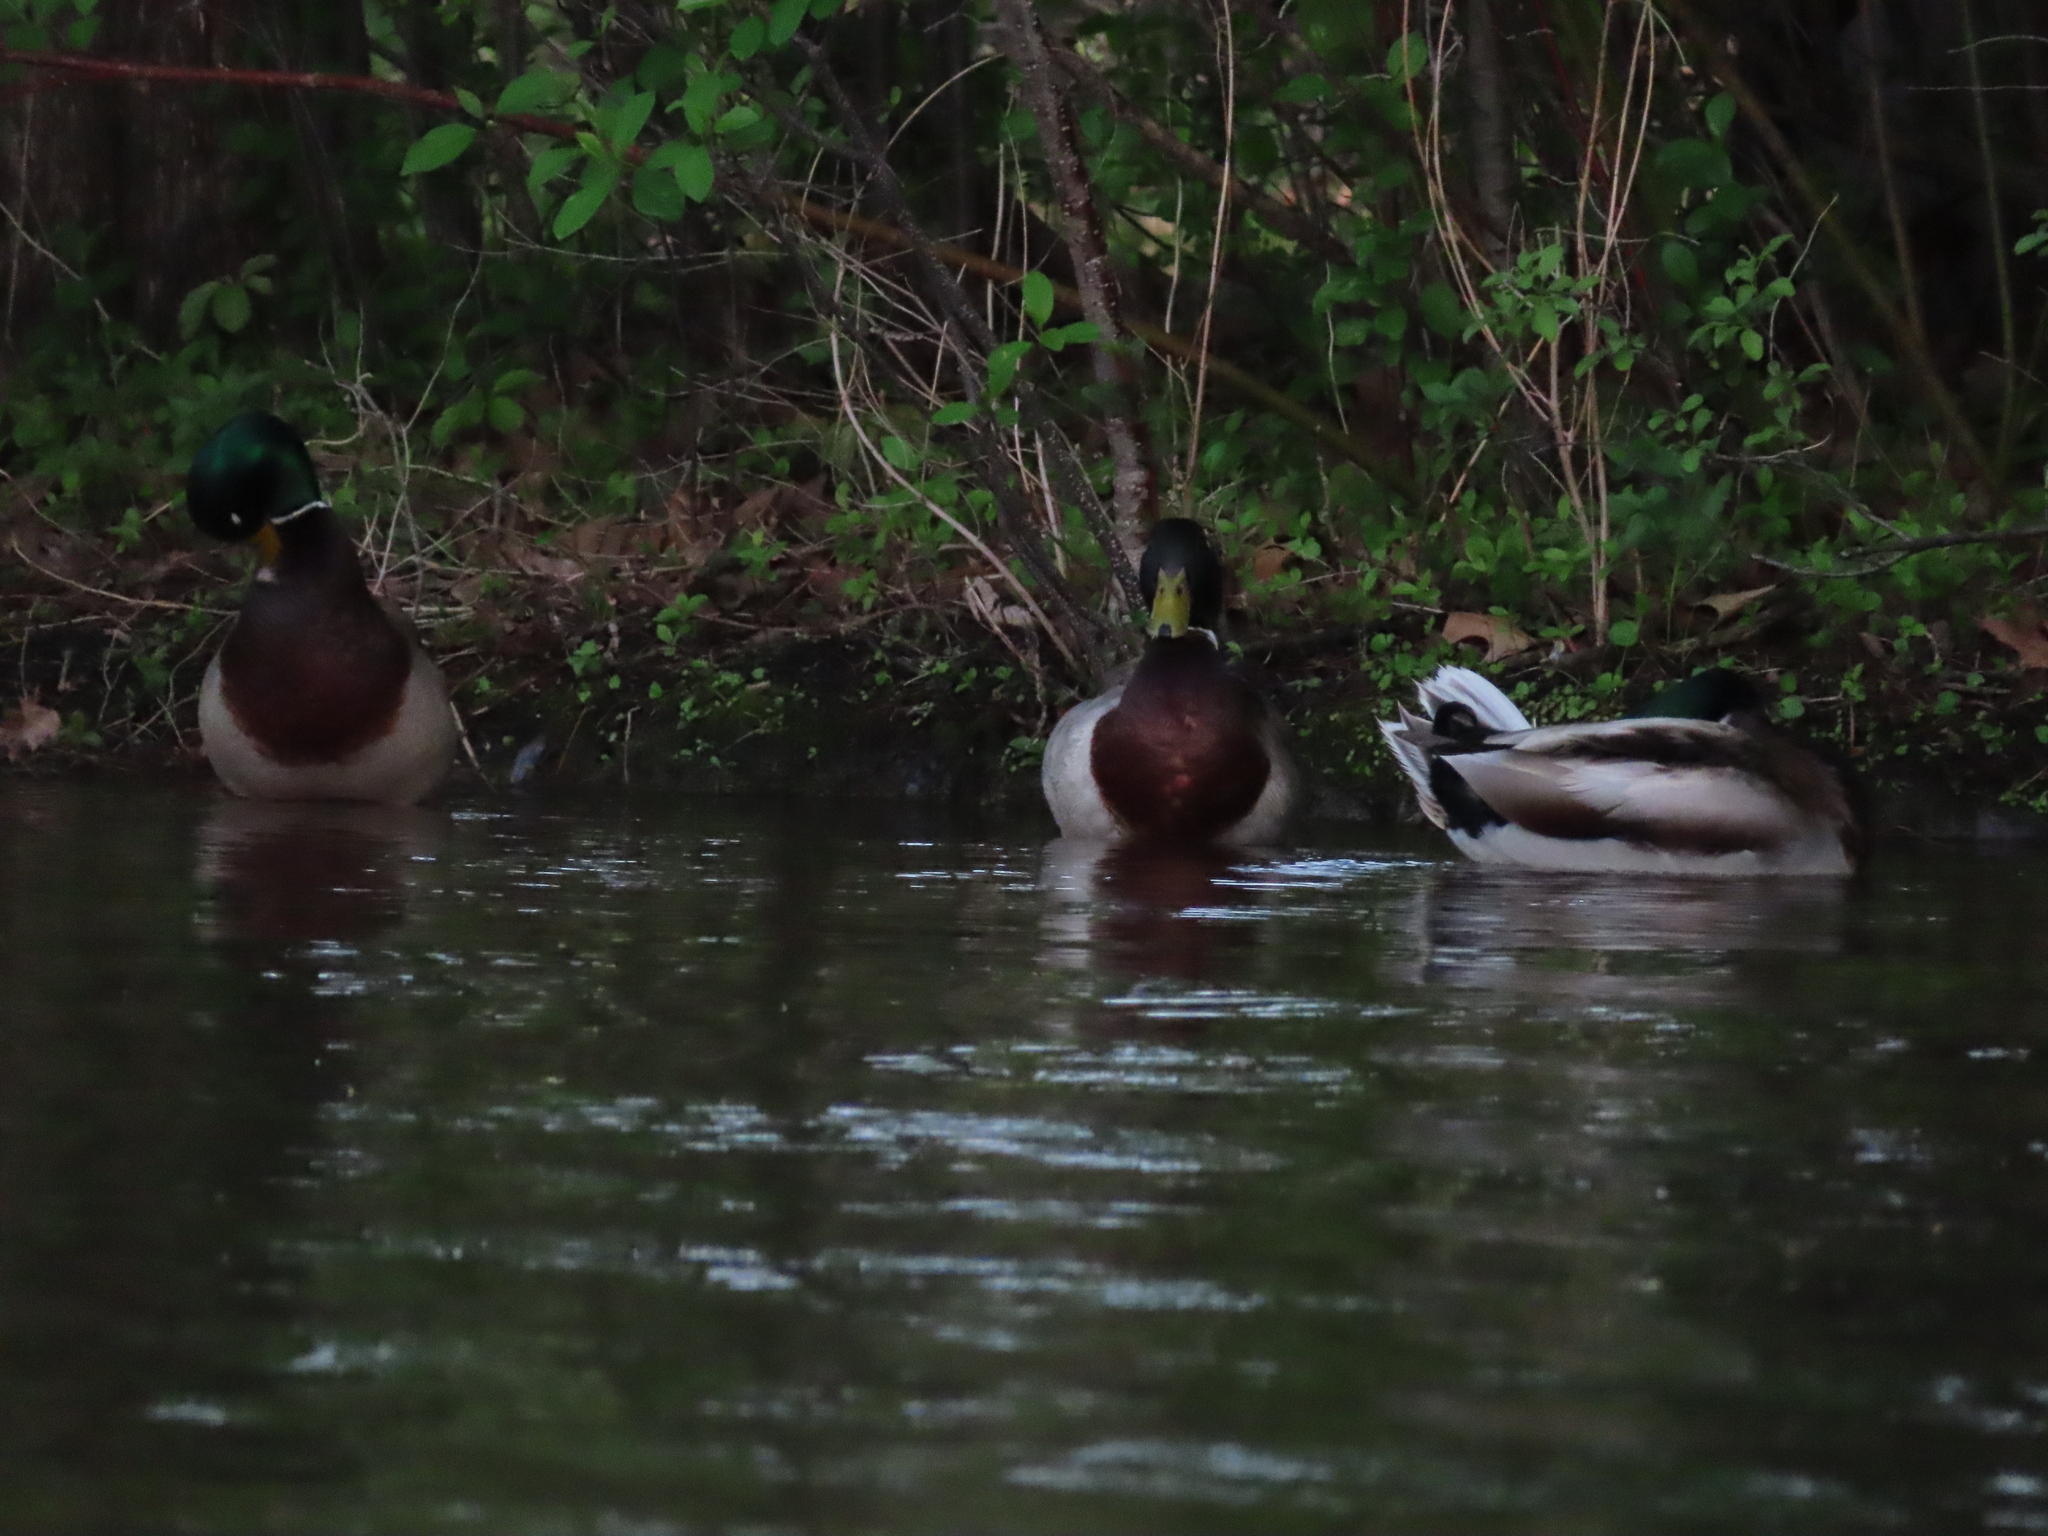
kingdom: Animalia
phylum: Chordata
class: Aves
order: Anseriformes
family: Anatidae
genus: Anas
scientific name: Anas platyrhynchos
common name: Mallard
